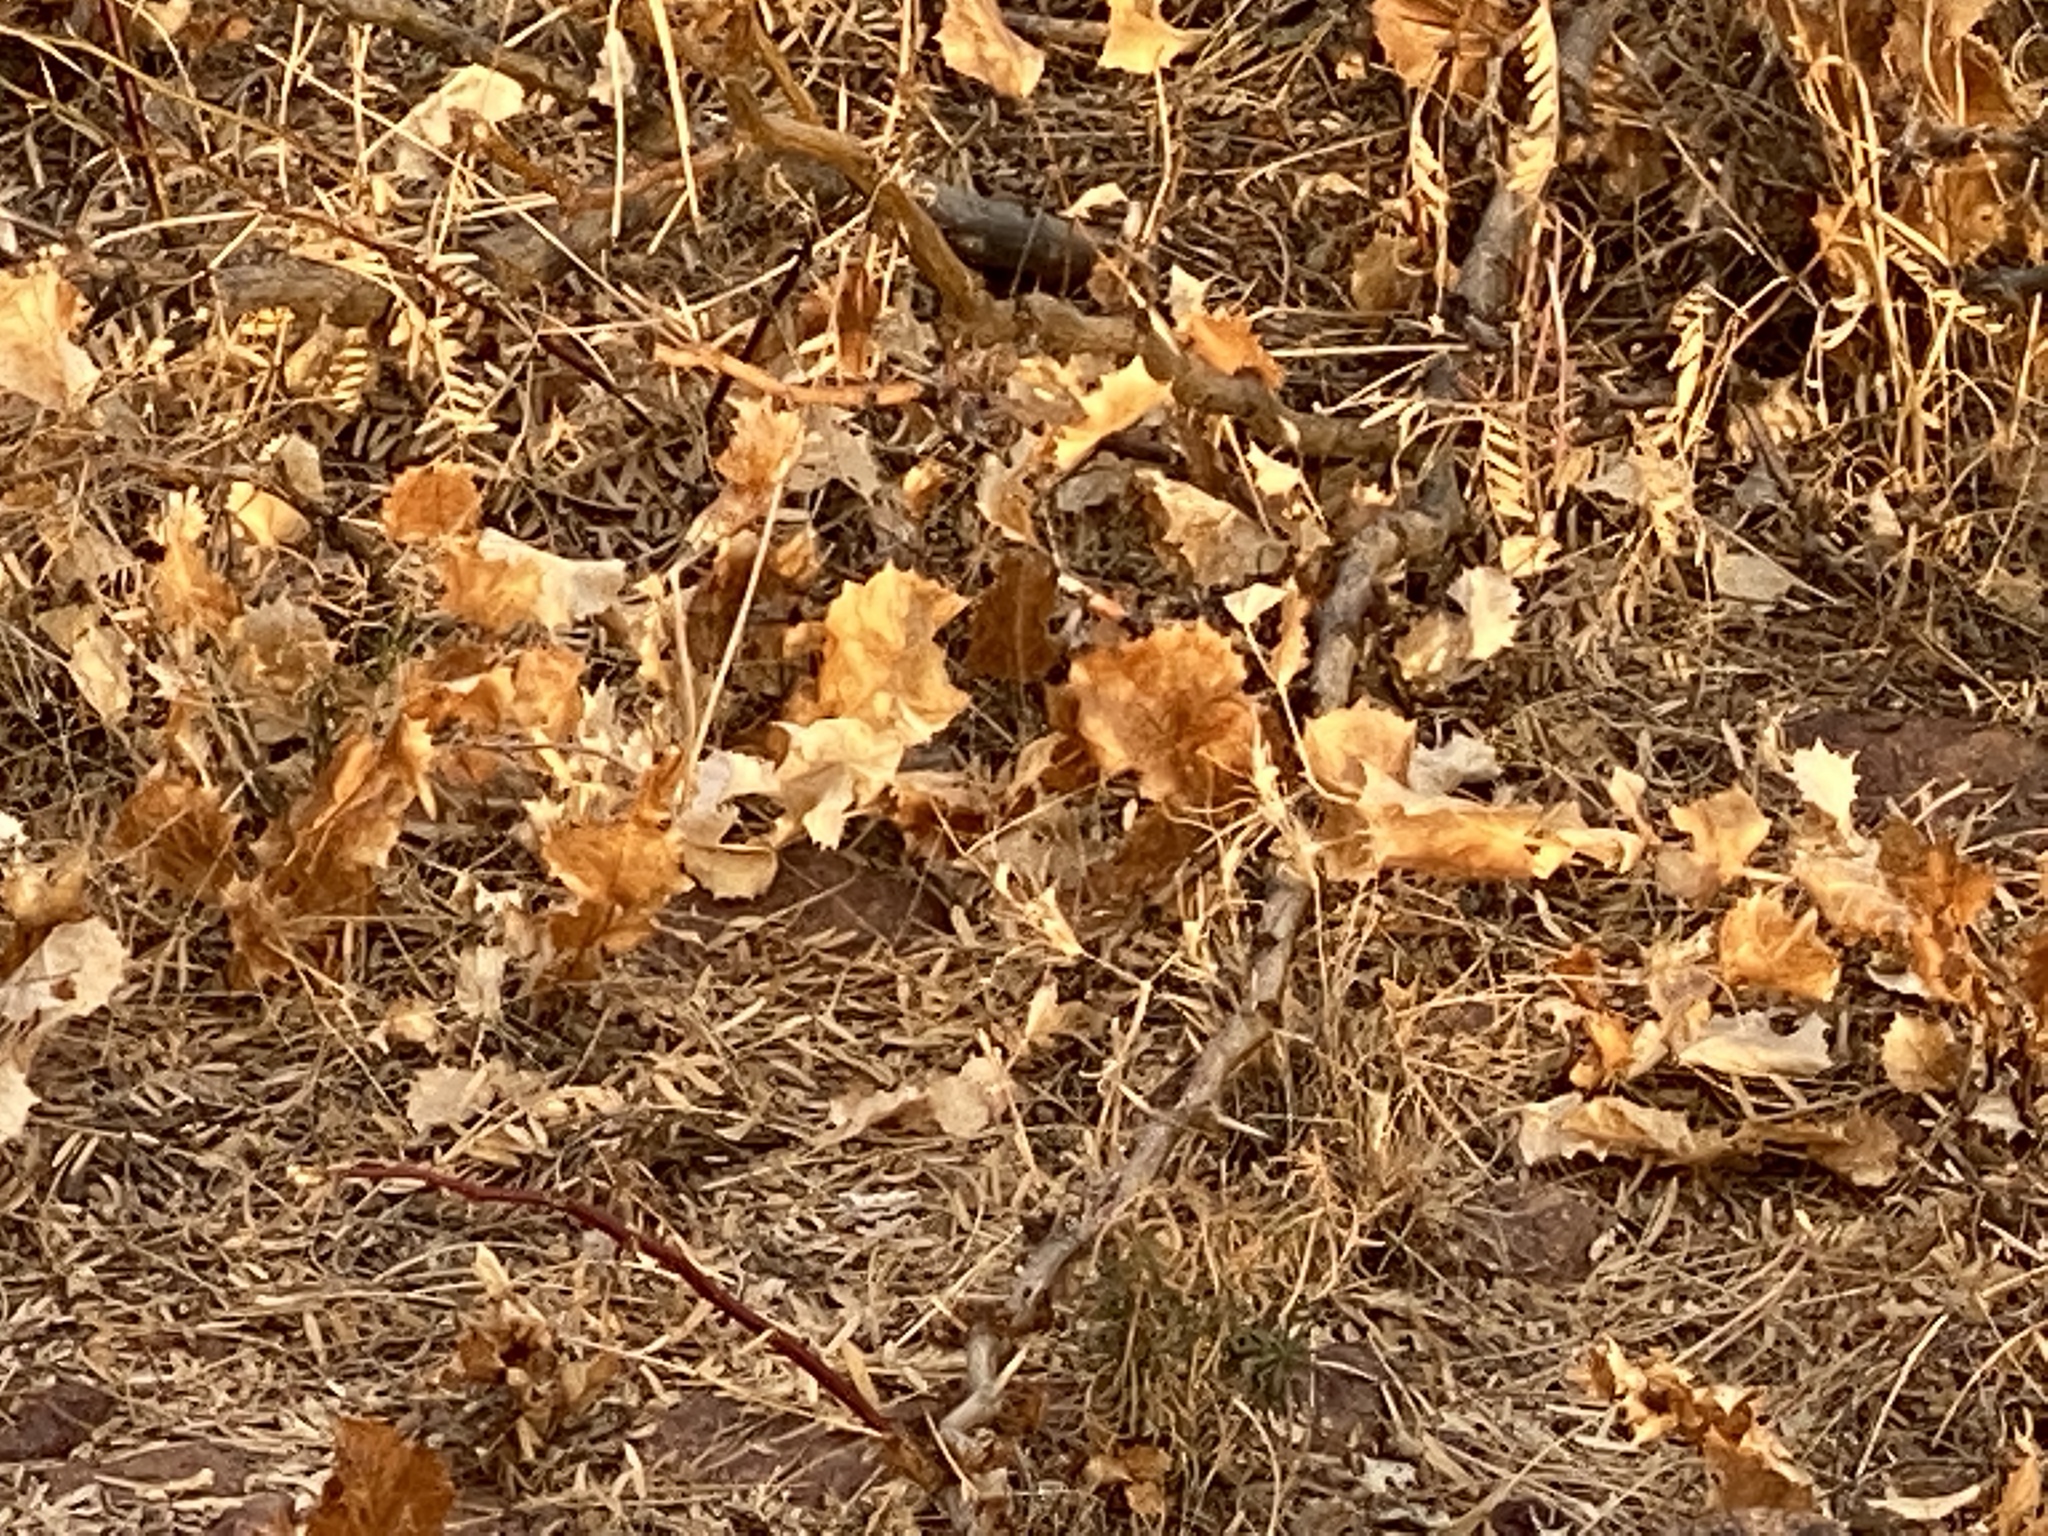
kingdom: Plantae
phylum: Tracheophyta
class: Magnoliopsida
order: Asterales
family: Asteraceae
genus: Acourtia
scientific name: Acourtia nana
